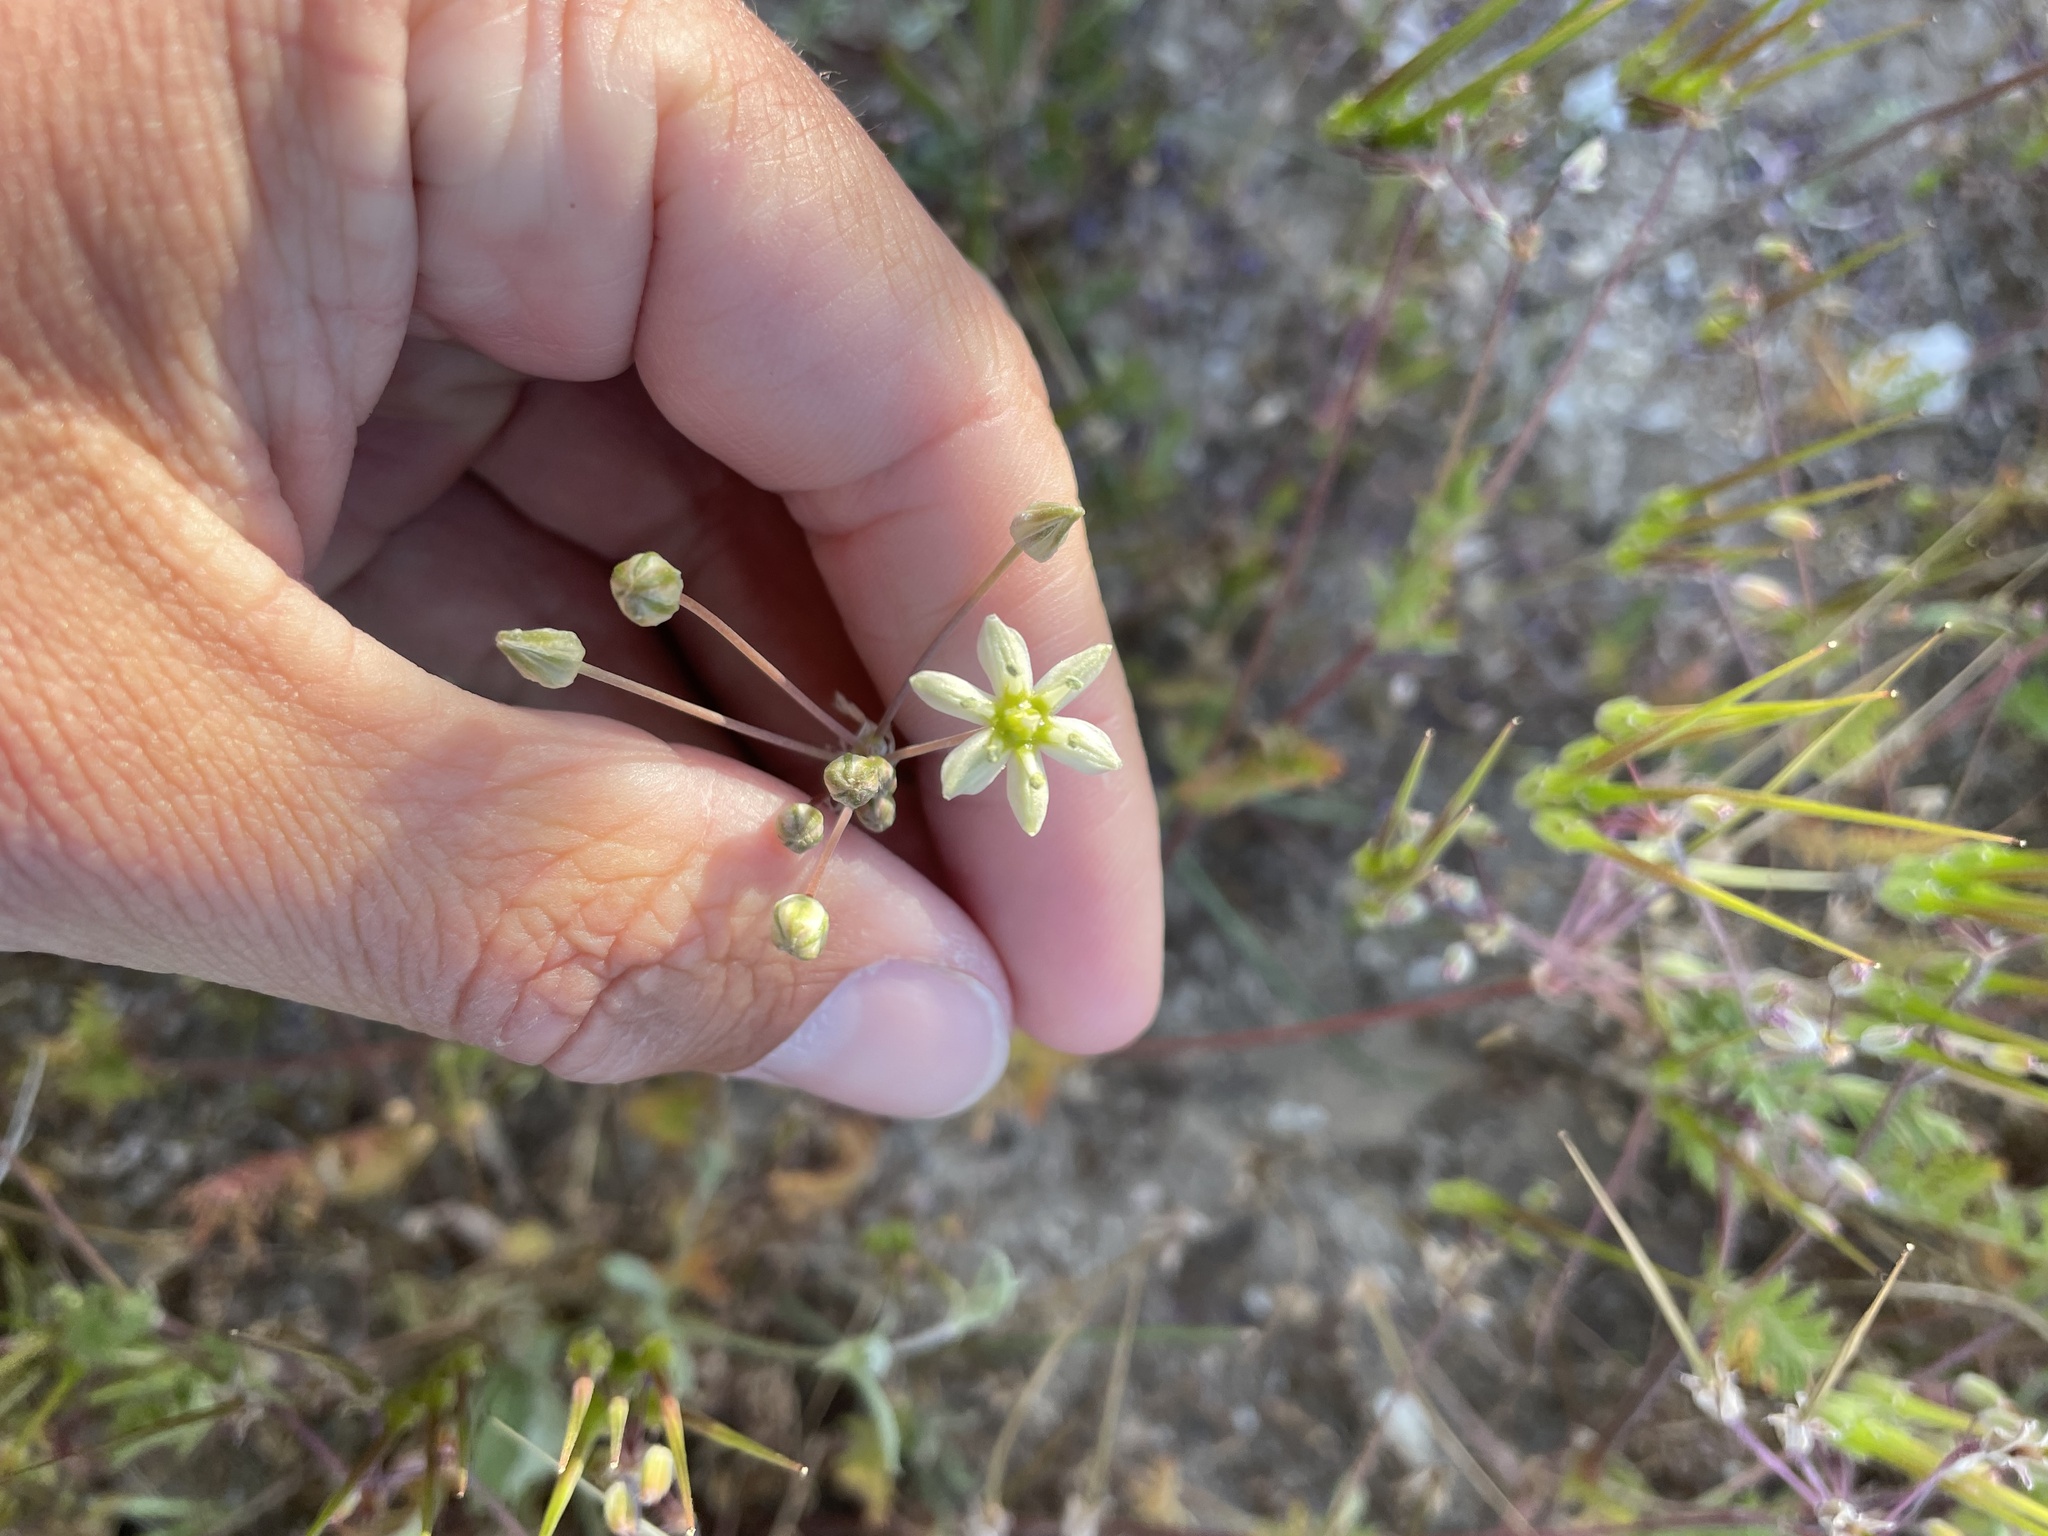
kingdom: Plantae
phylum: Tracheophyta
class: Liliopsida
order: Asparagales
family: Asparagaceae
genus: Muilla
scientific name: Muilla maritima
